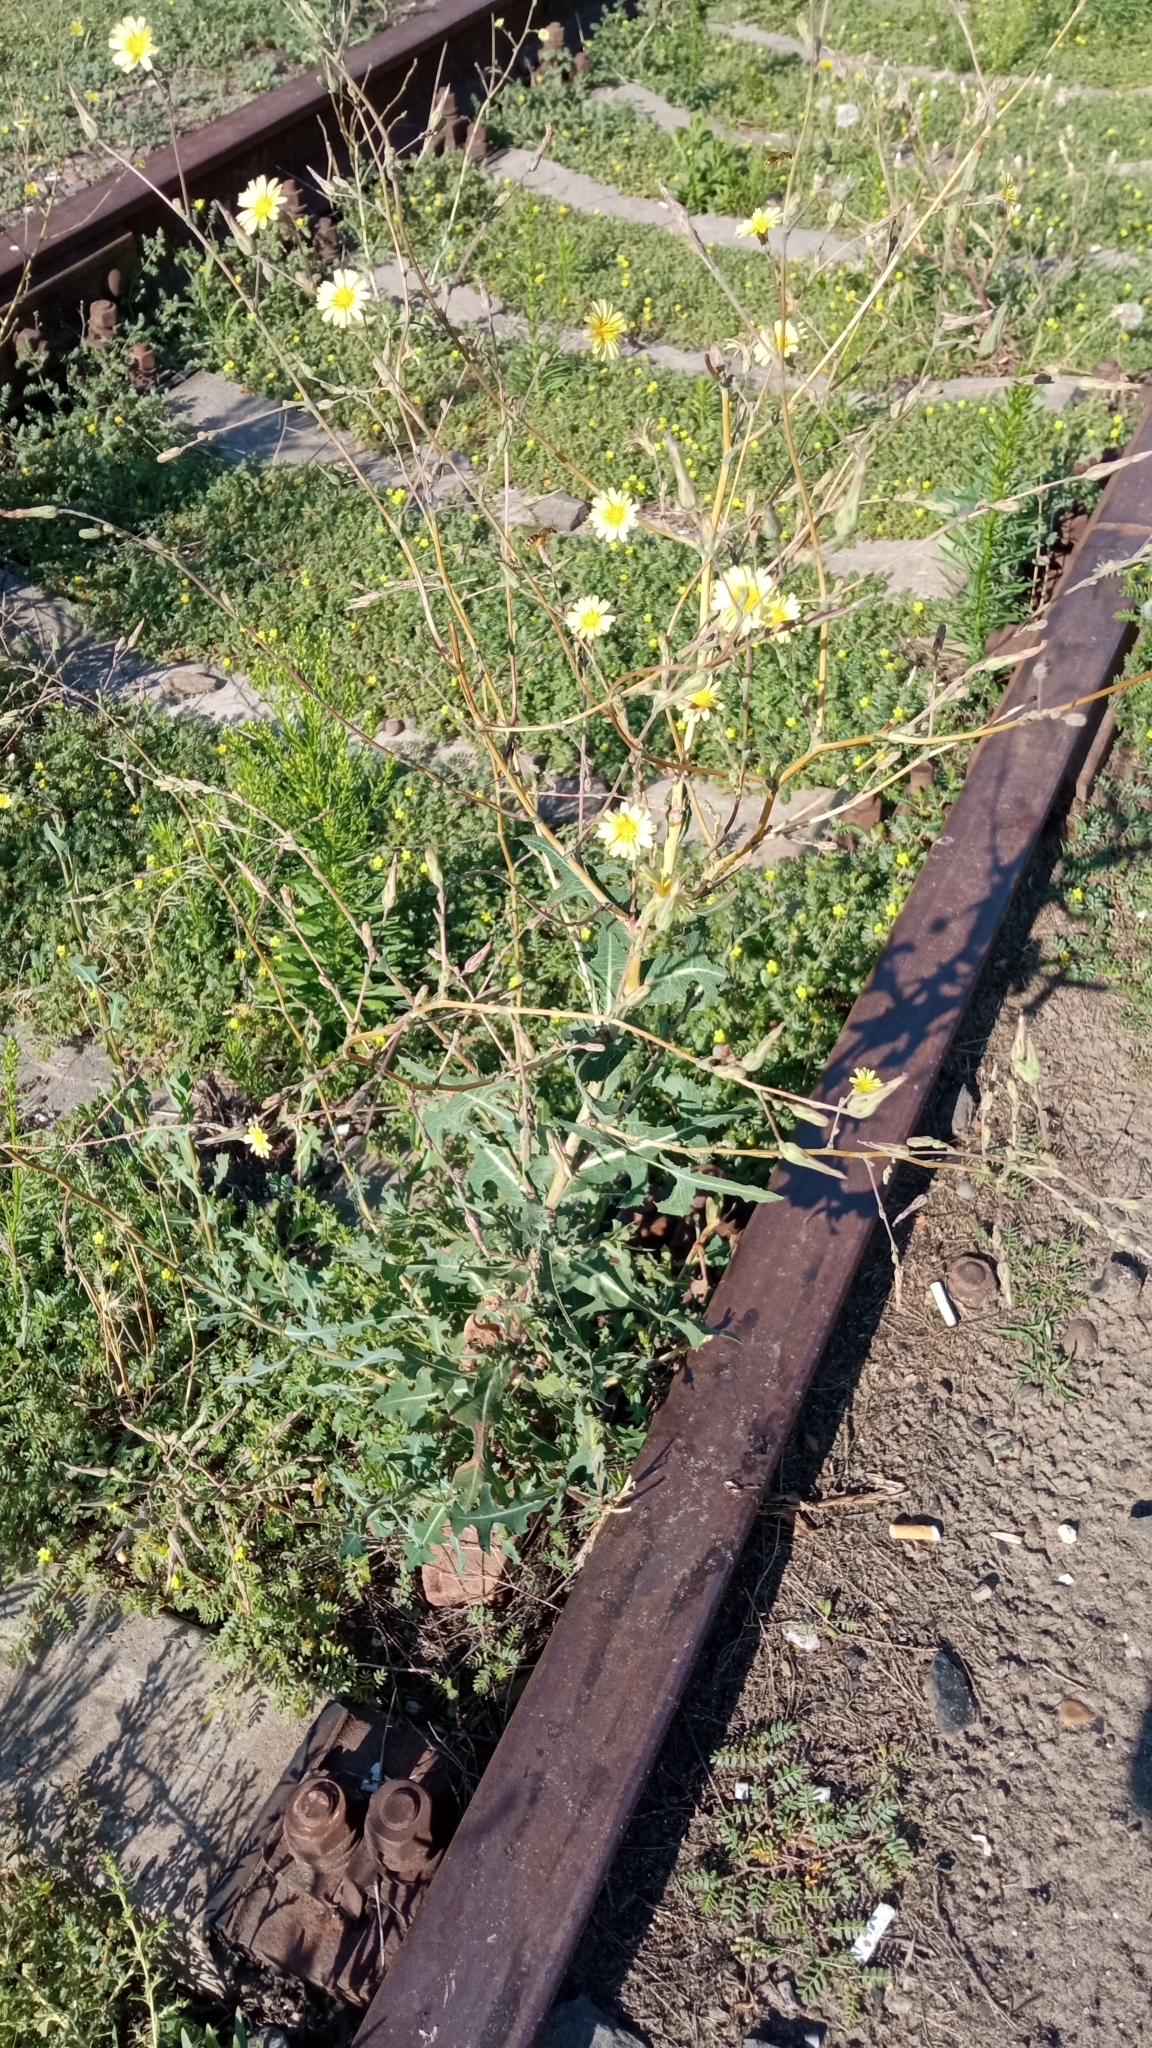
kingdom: Plantae
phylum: Tracheophyta
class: Magnoliopsida
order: Asterales
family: Asteraceae
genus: Lactuca
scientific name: Lactuca serriola
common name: Prickly lettuce
